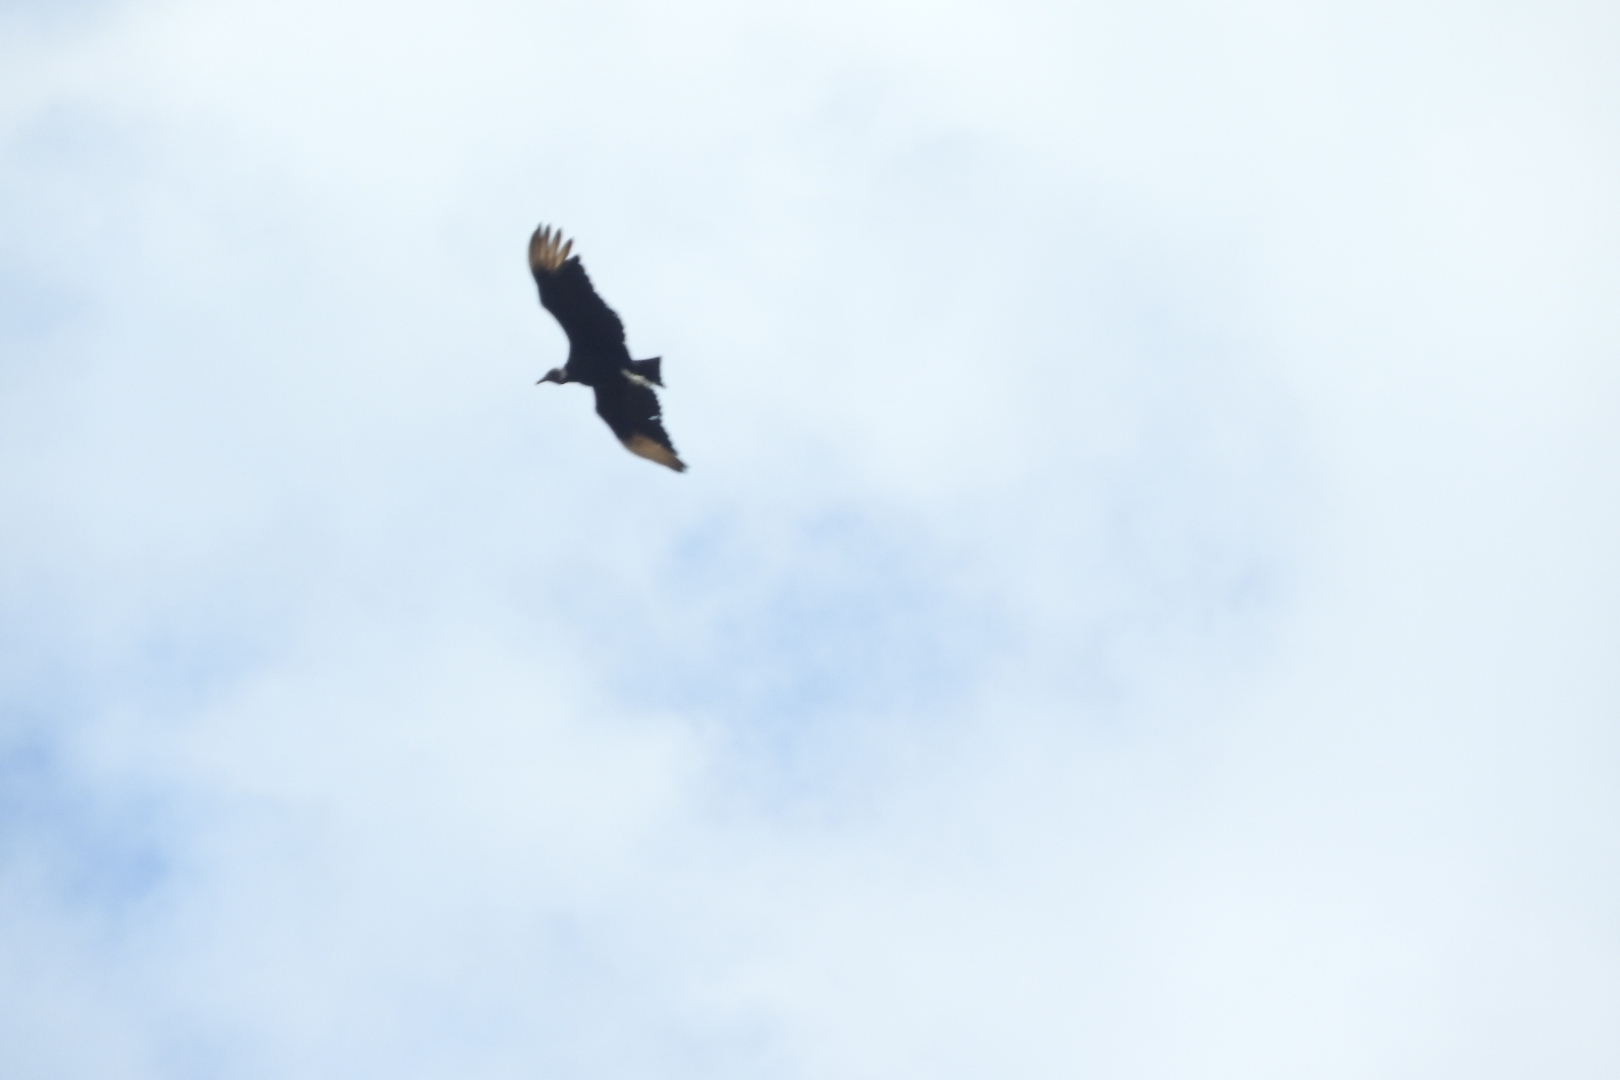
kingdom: Animalia
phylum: Chordata
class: Aves
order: Accipitriformes
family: Cathartidae
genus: Coragyps
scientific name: Coragyps atratus
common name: Black vulture
